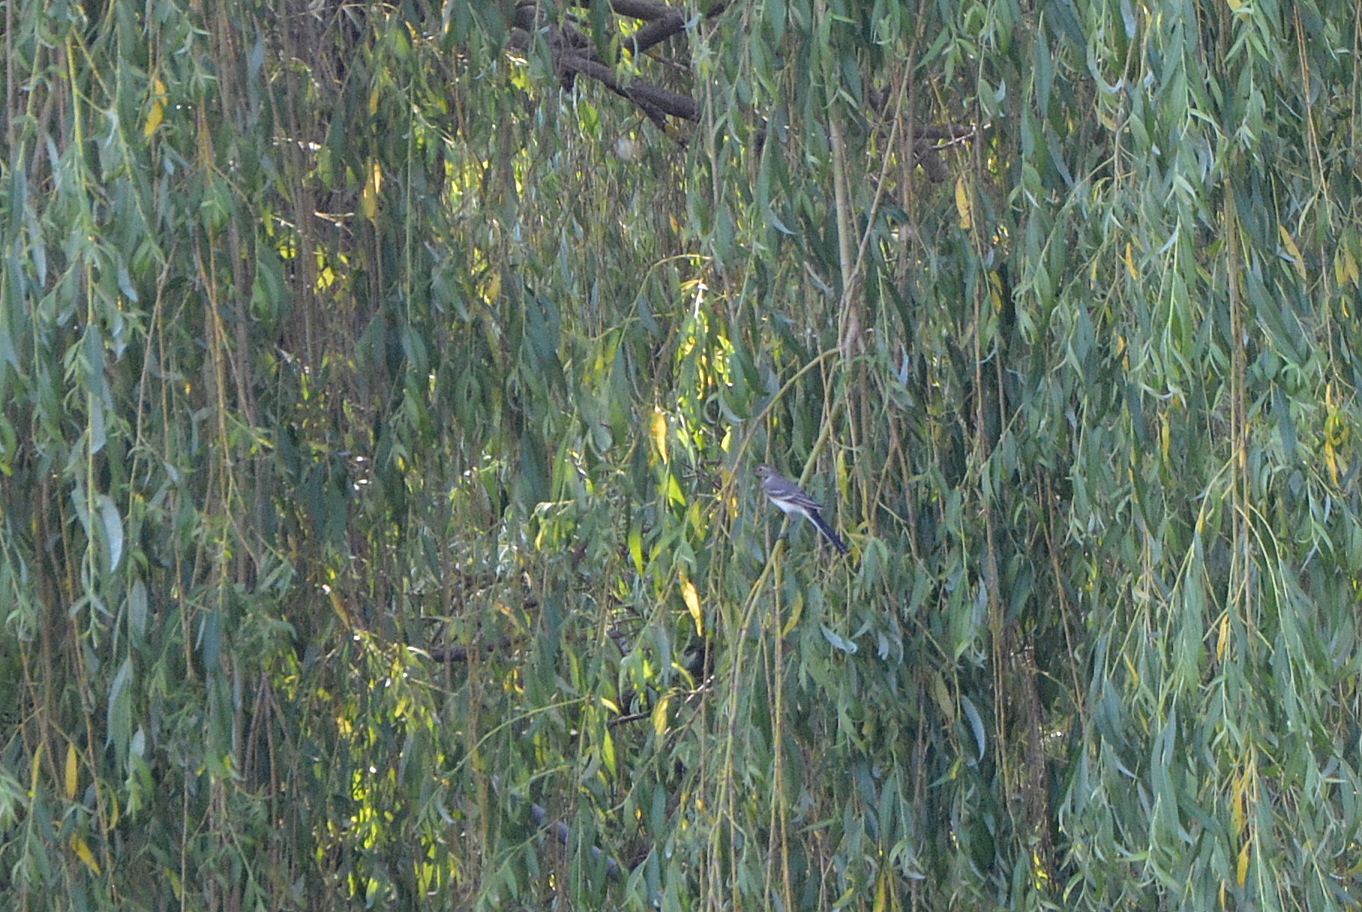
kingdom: Animalia
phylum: Chordata
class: Aves
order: Passeriformes
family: Motacillidae
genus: Motacilla
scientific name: Motacilla alba
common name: White wagtail
